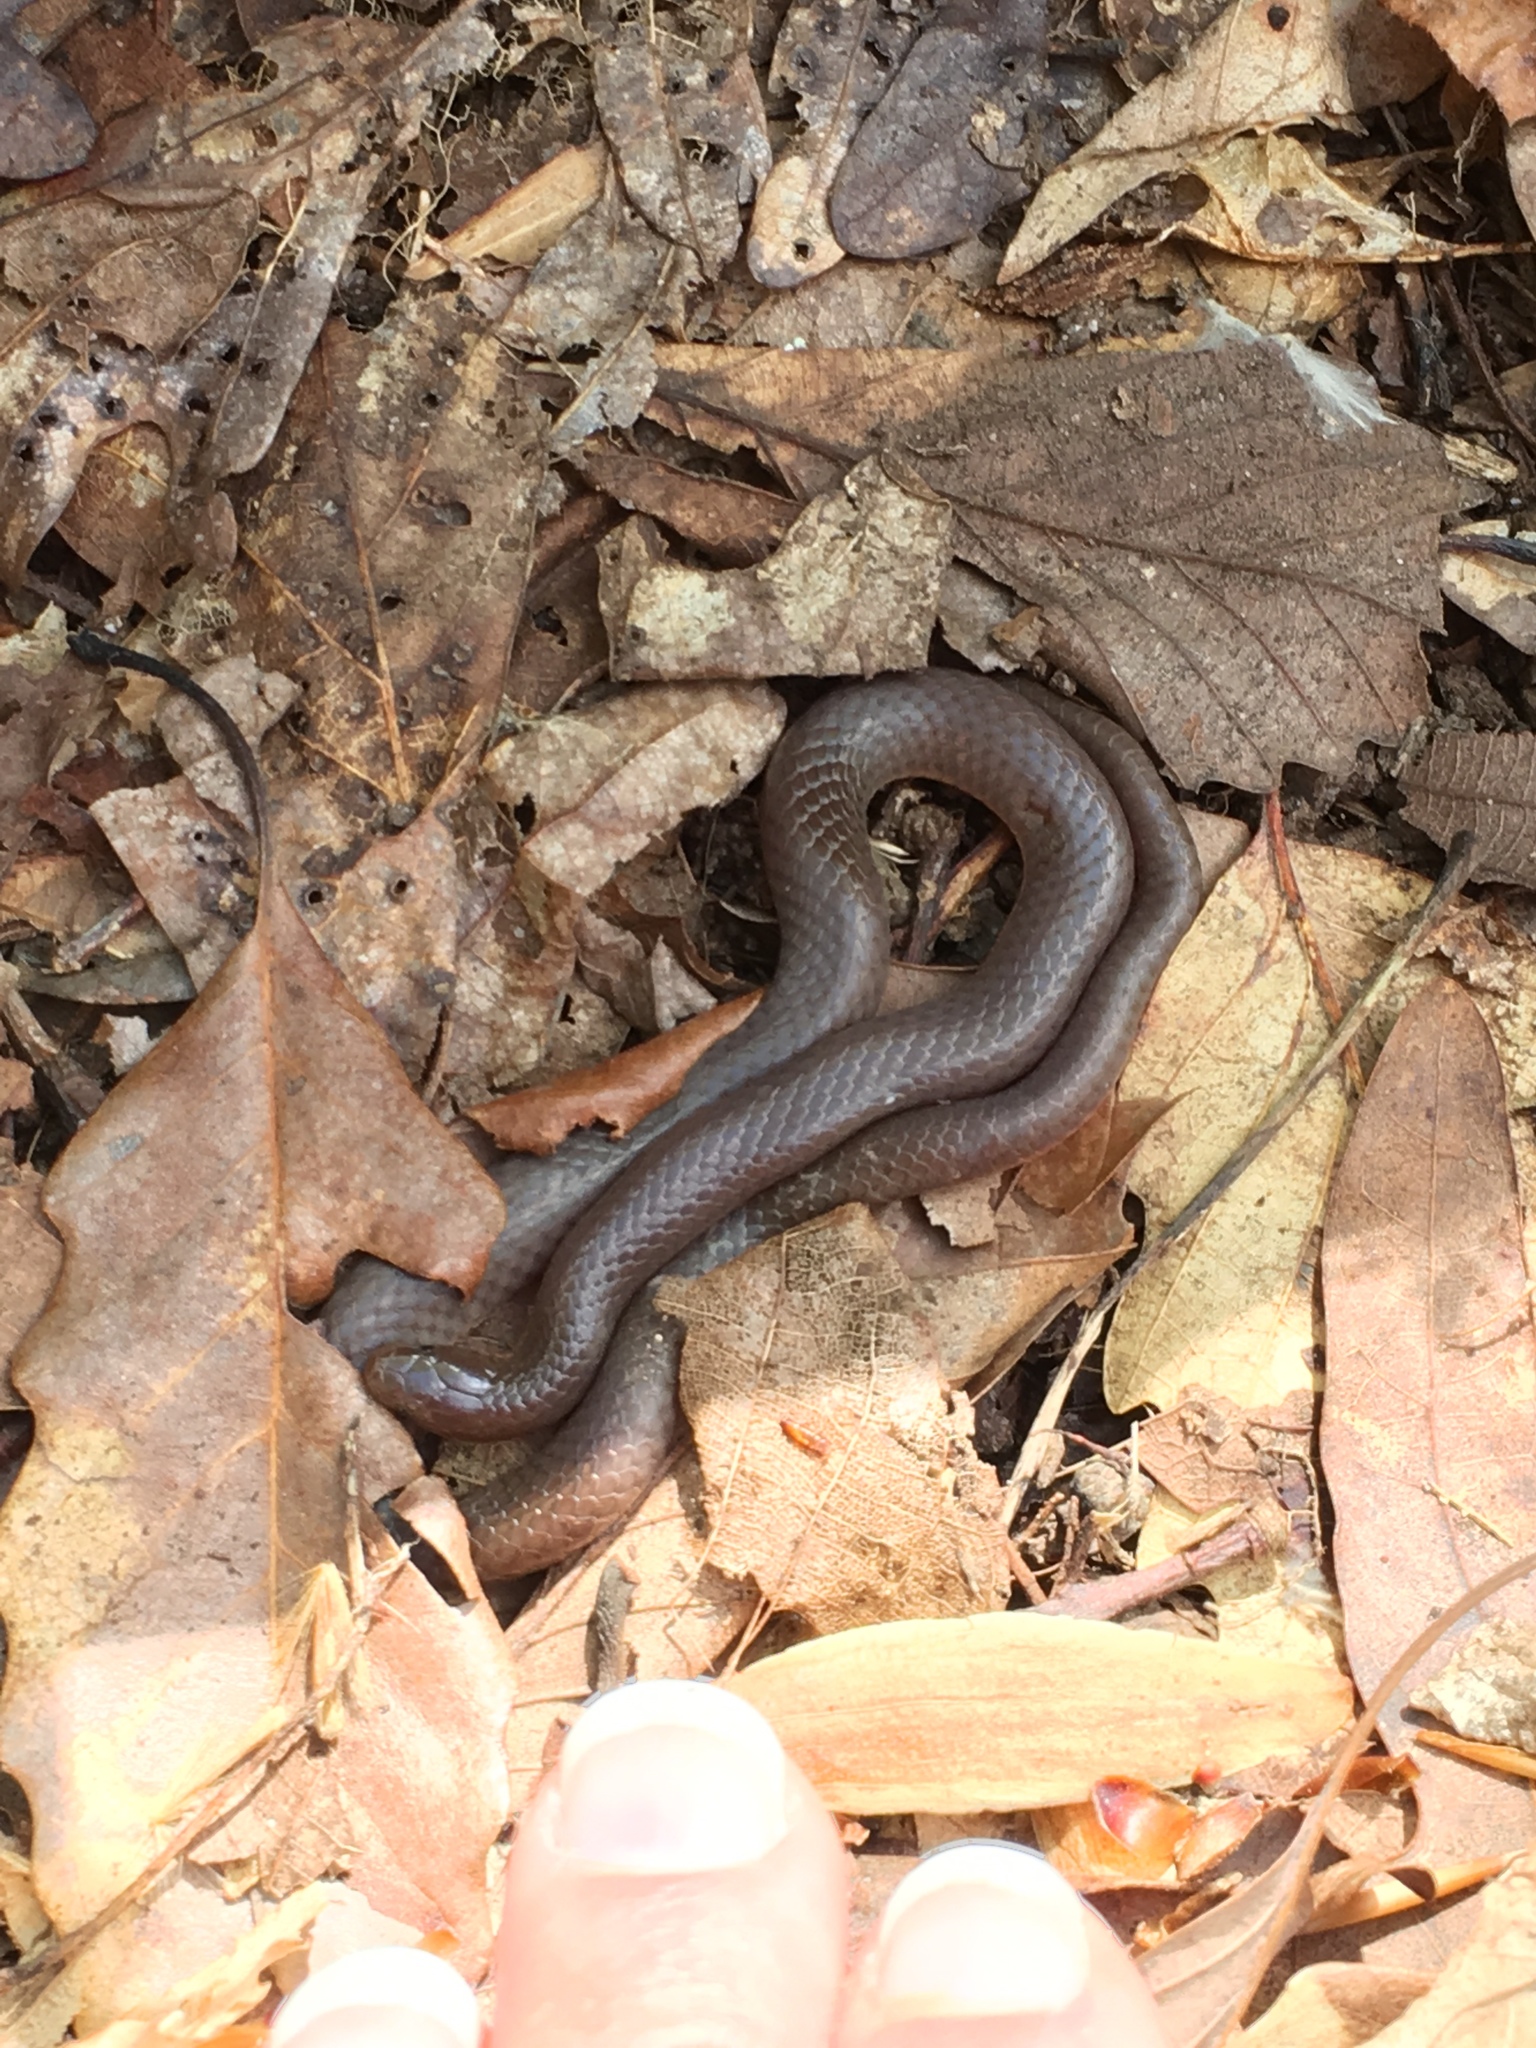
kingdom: Animalia
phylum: Chordata
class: Squamata
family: Colubridae
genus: Carphophis
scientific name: Carphophis amoenus
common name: Eastern worm snake
